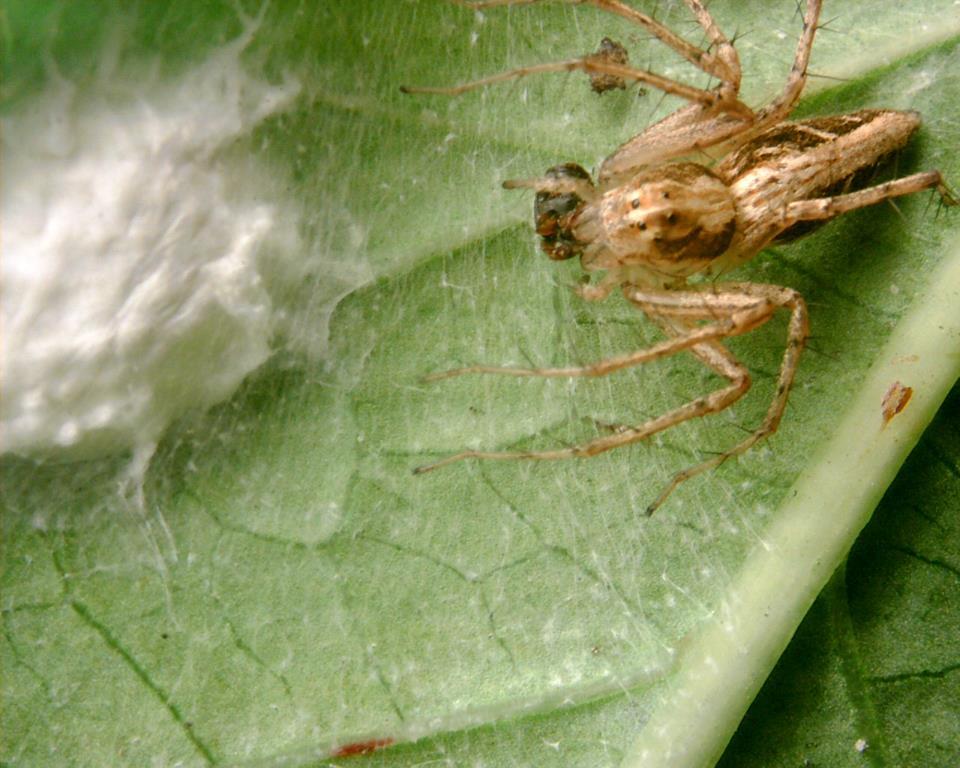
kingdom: Animalia
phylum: Arthropoda
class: Arachnida
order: Araneae
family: Oxyopidae
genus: Oxyopes
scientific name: Oxyopes sertatus
